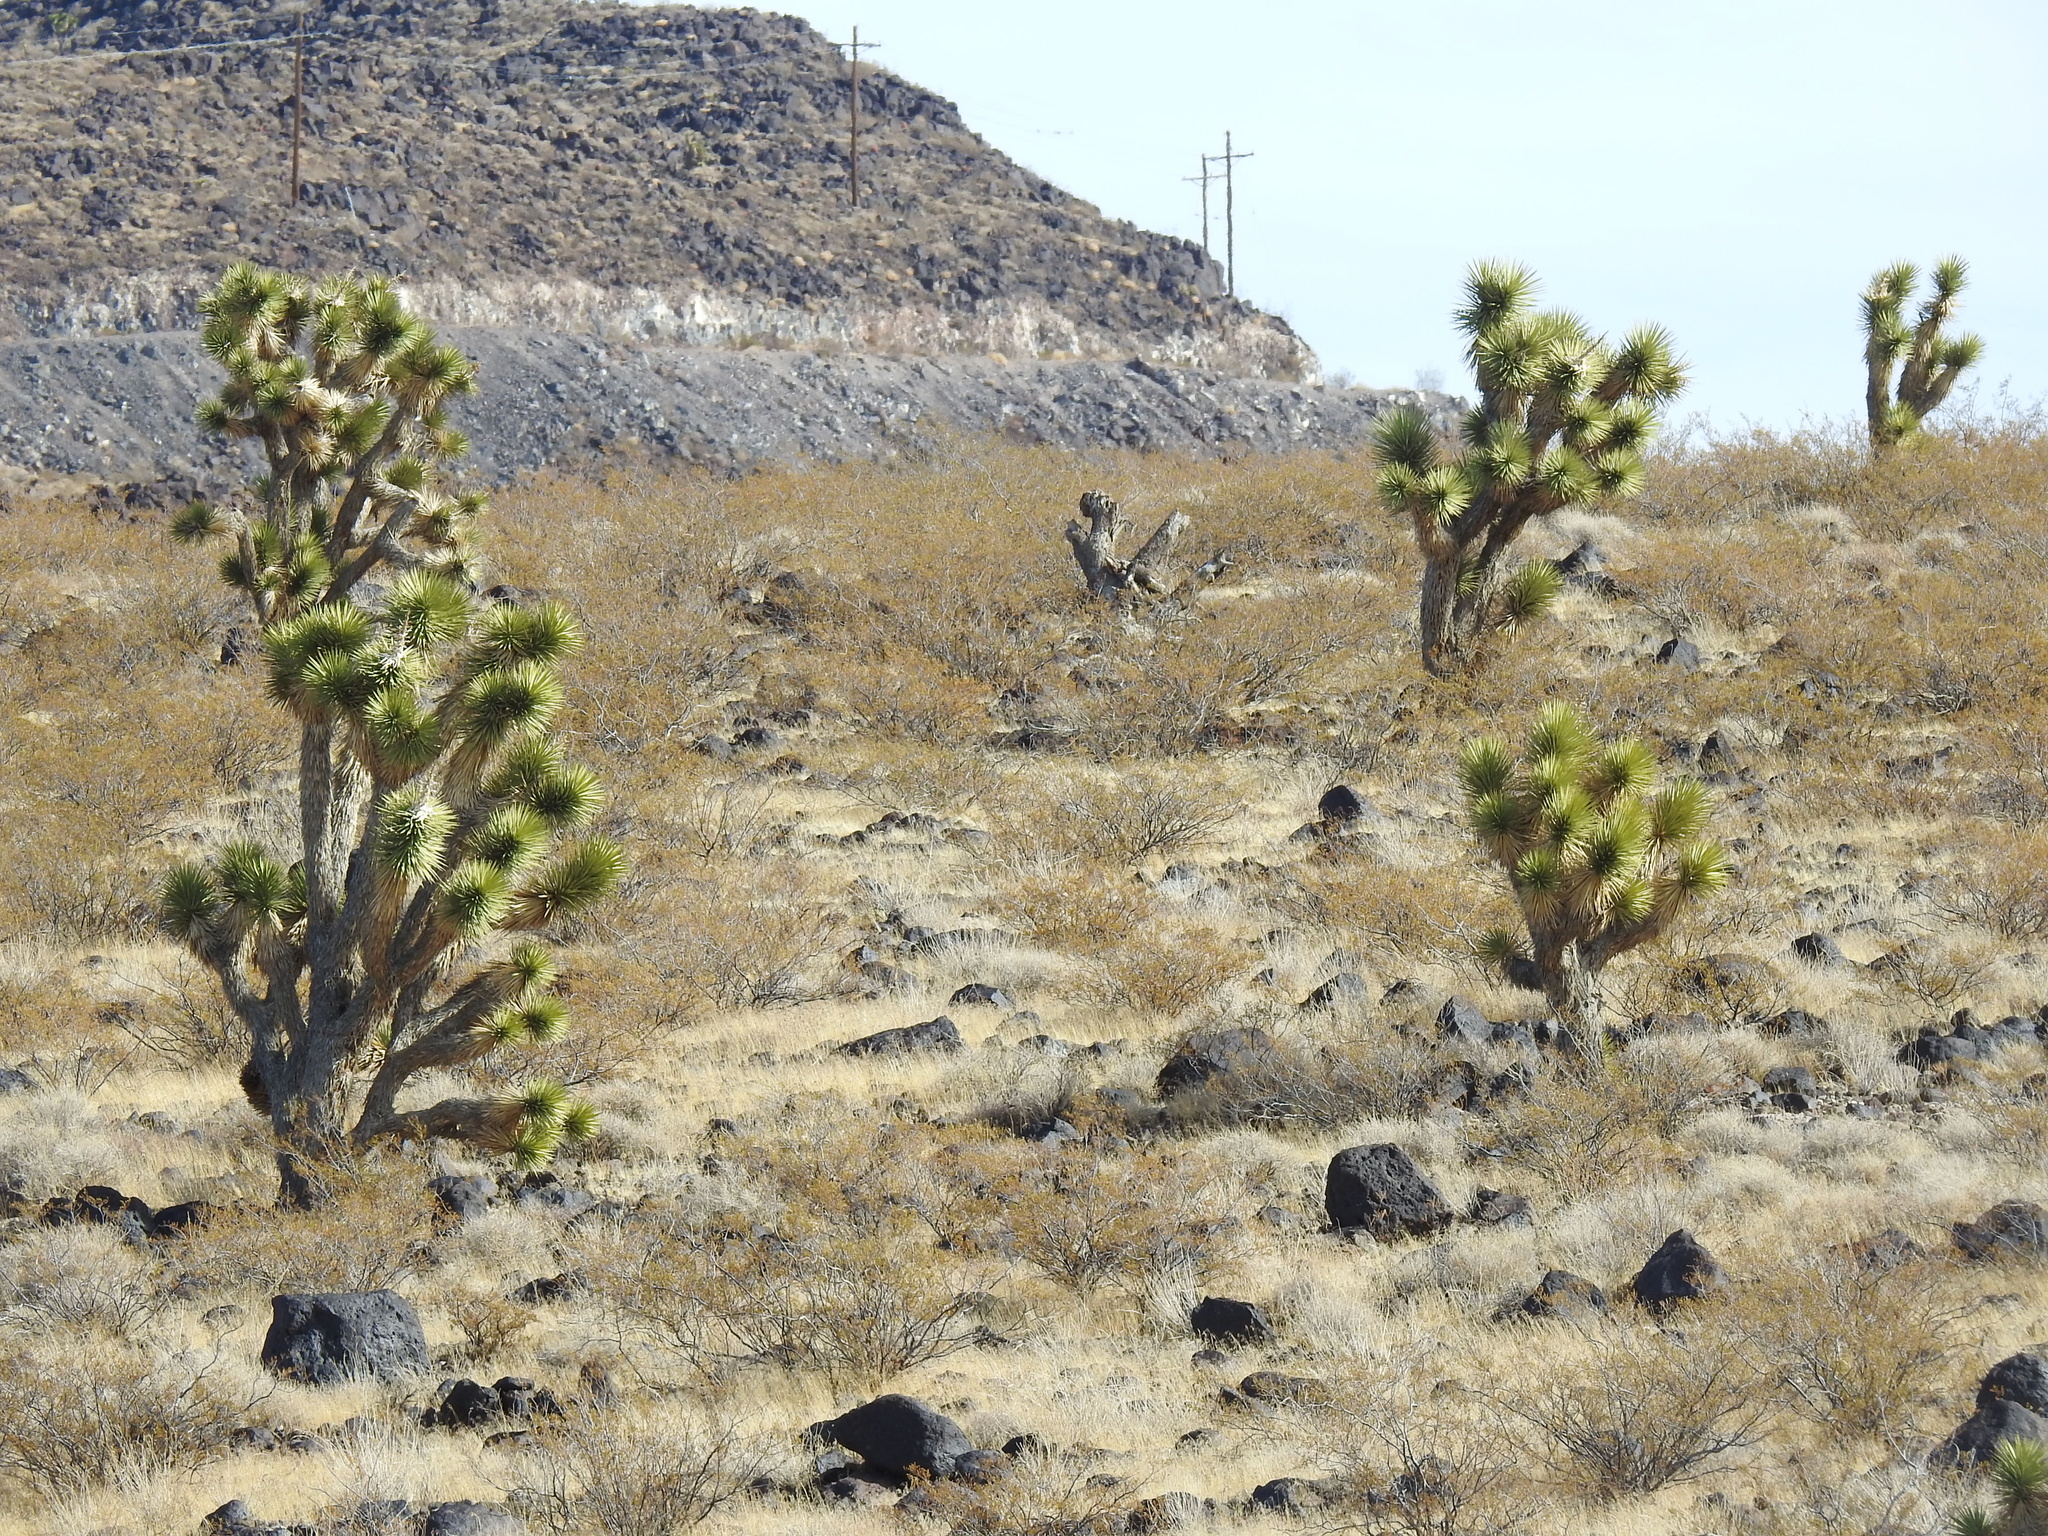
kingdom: Plantae
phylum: Tracheophyta
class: Liliopsida
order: Asparagales
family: Asparagaceae
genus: Yucca
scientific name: Yucca brevifolia
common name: Joshua tree
